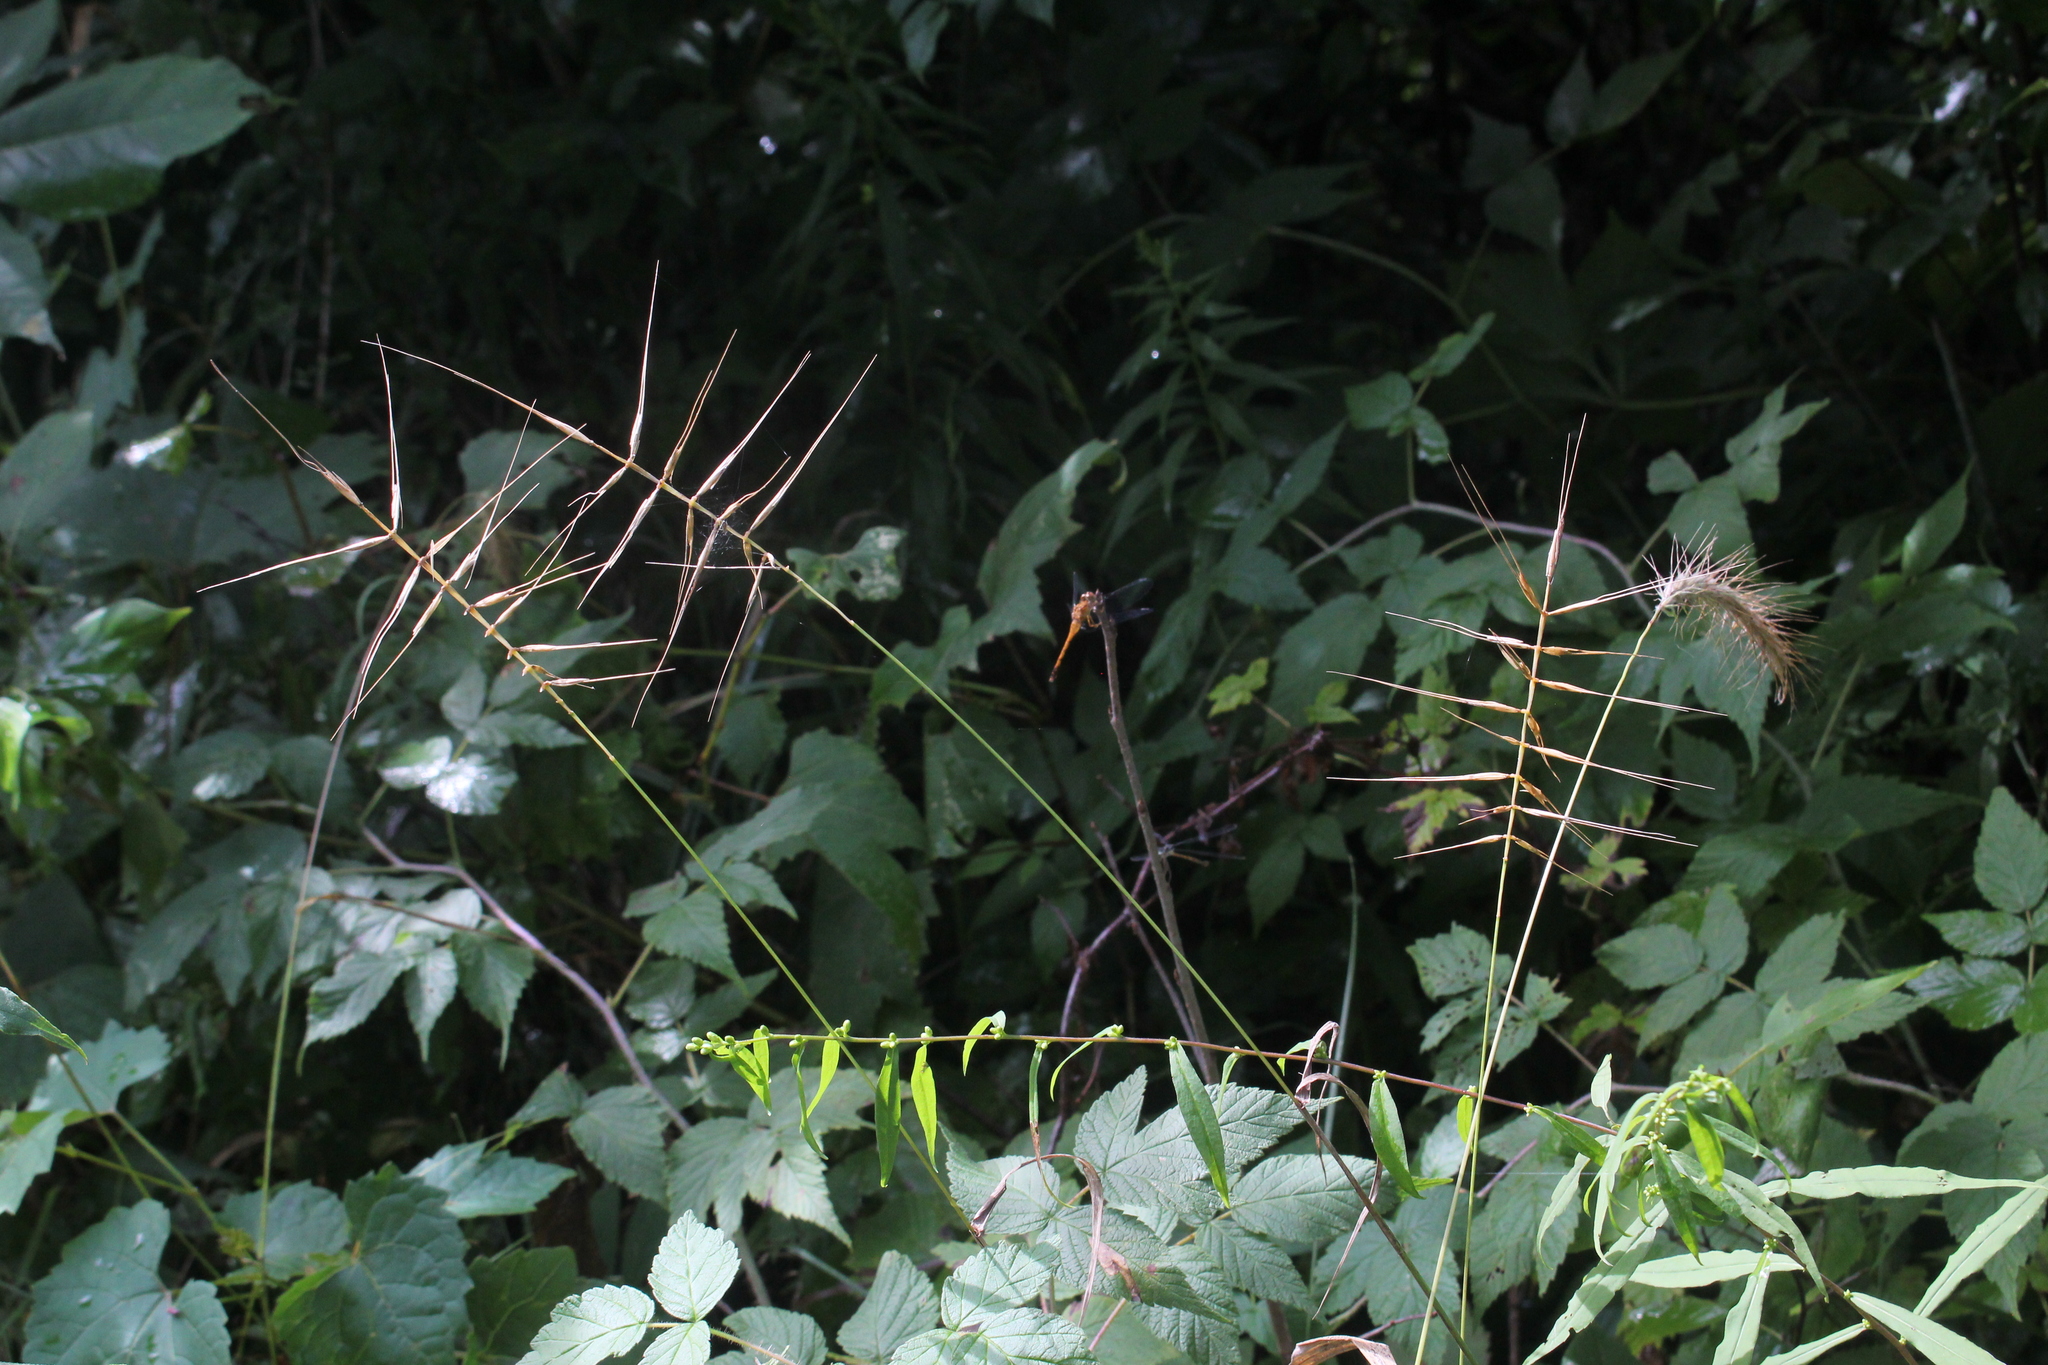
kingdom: Plantae
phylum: Tracheophyta
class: Liliopsida
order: Poales
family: Poaceae
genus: Elymus
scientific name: Elymus hystrix
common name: Bottlebrush grass
